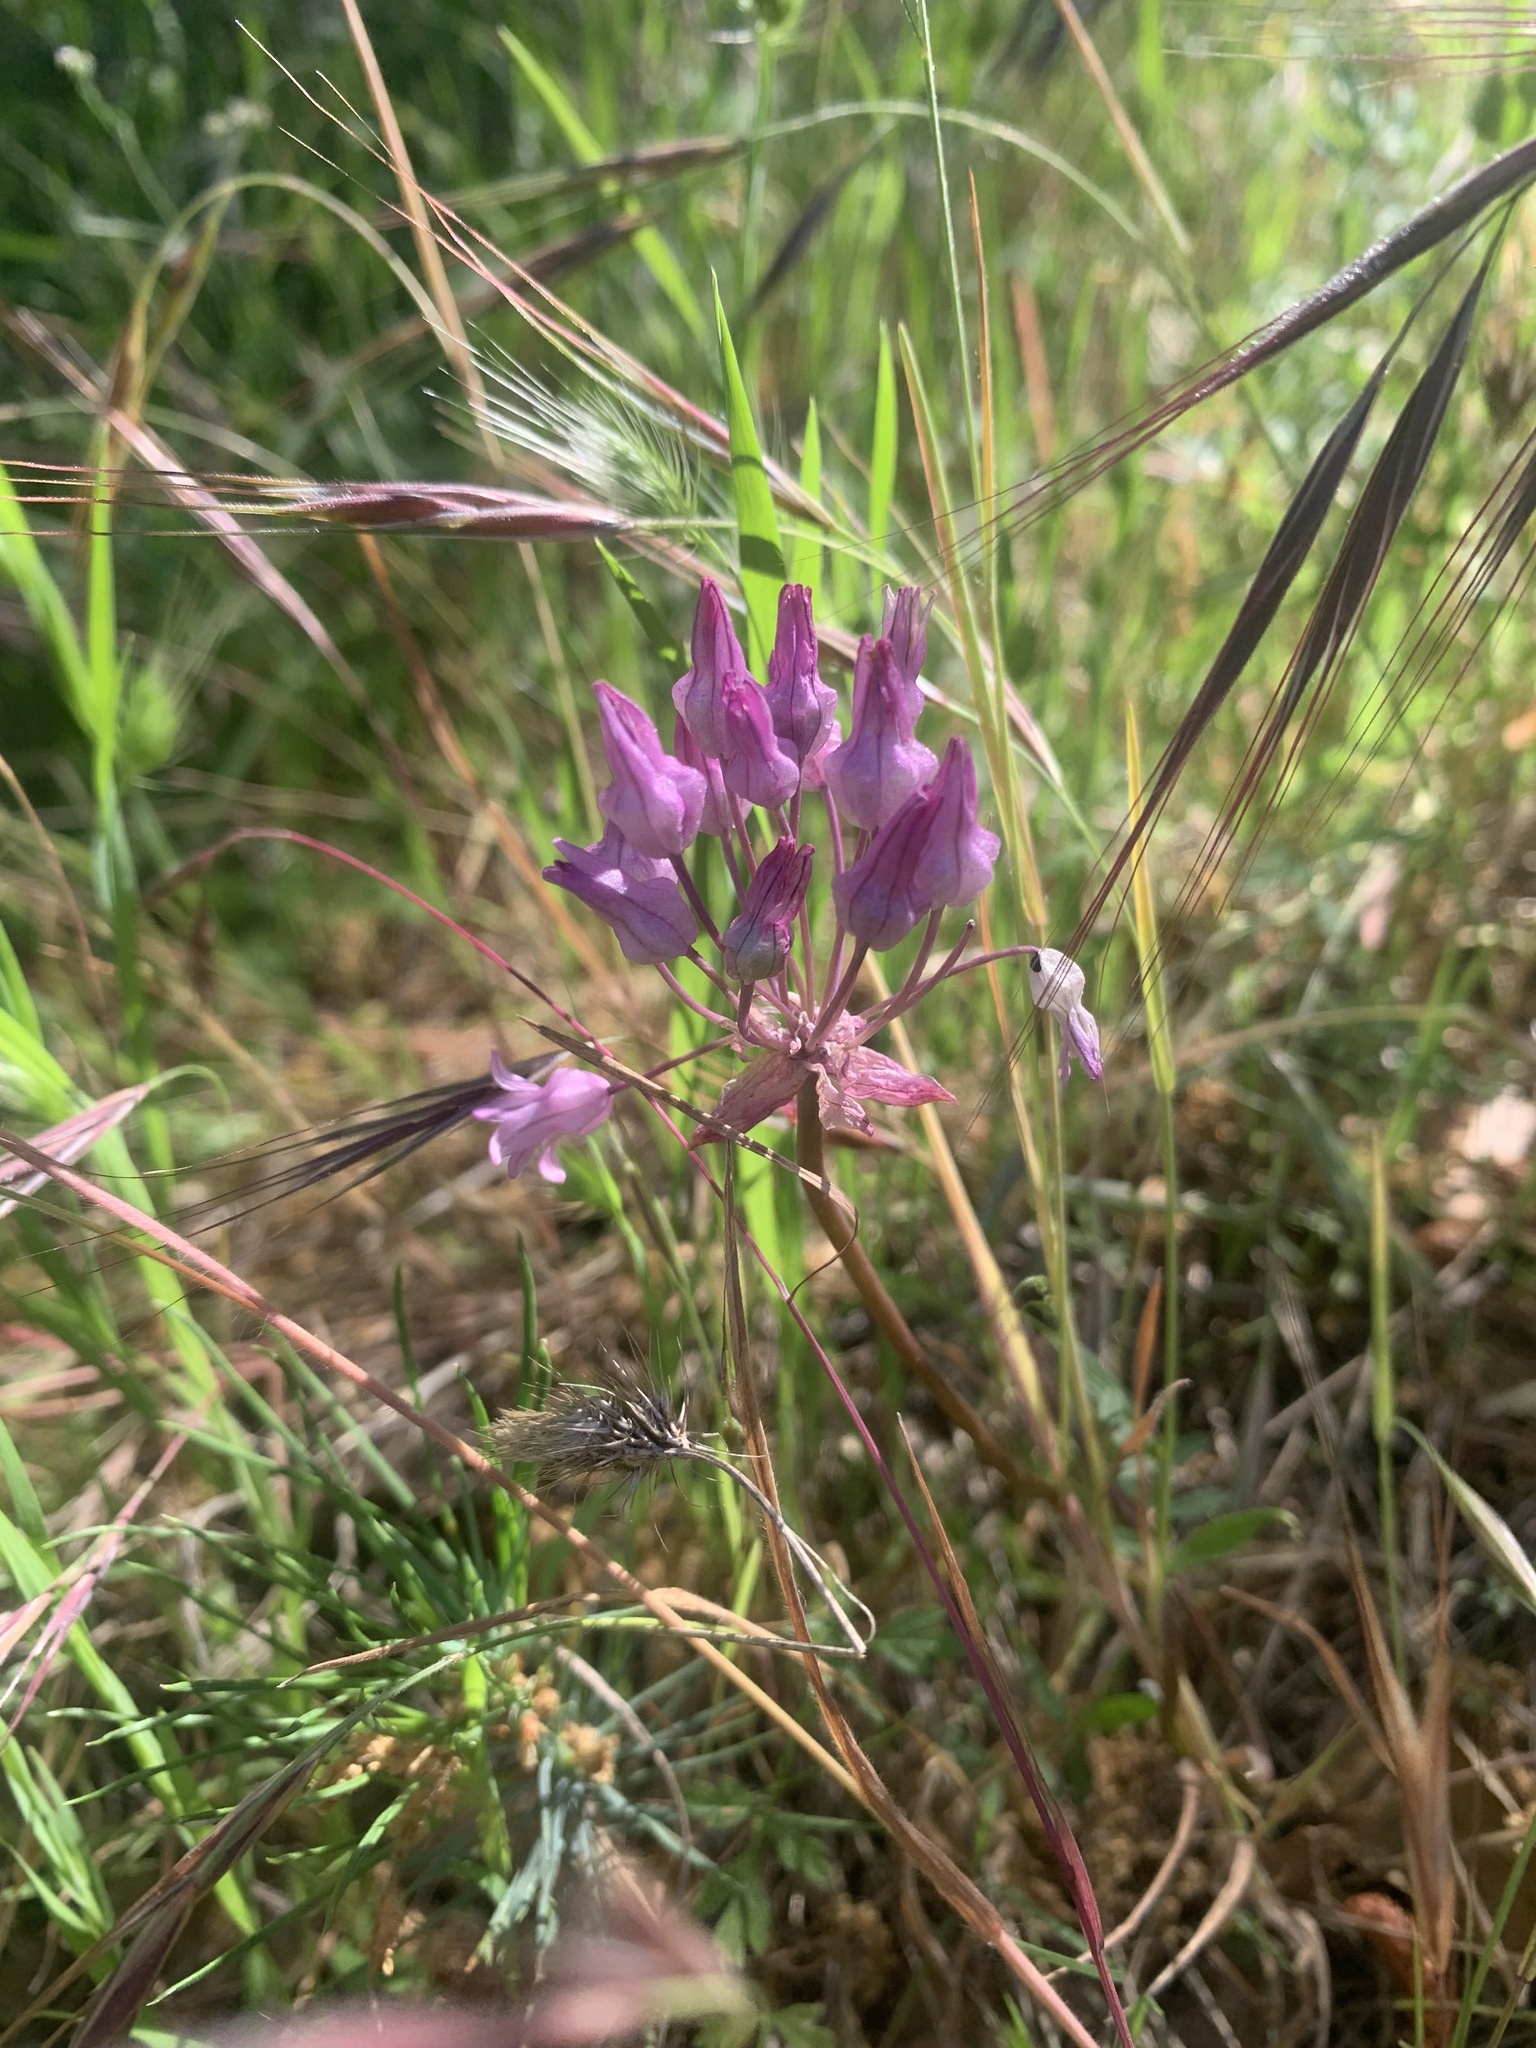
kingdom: Plantae
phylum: Tracheophyta
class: Liliopsida
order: Asparagales
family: Asparagaceae
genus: Dichelostemma
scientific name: Dichelostemma volubile
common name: Trining brodiaea
